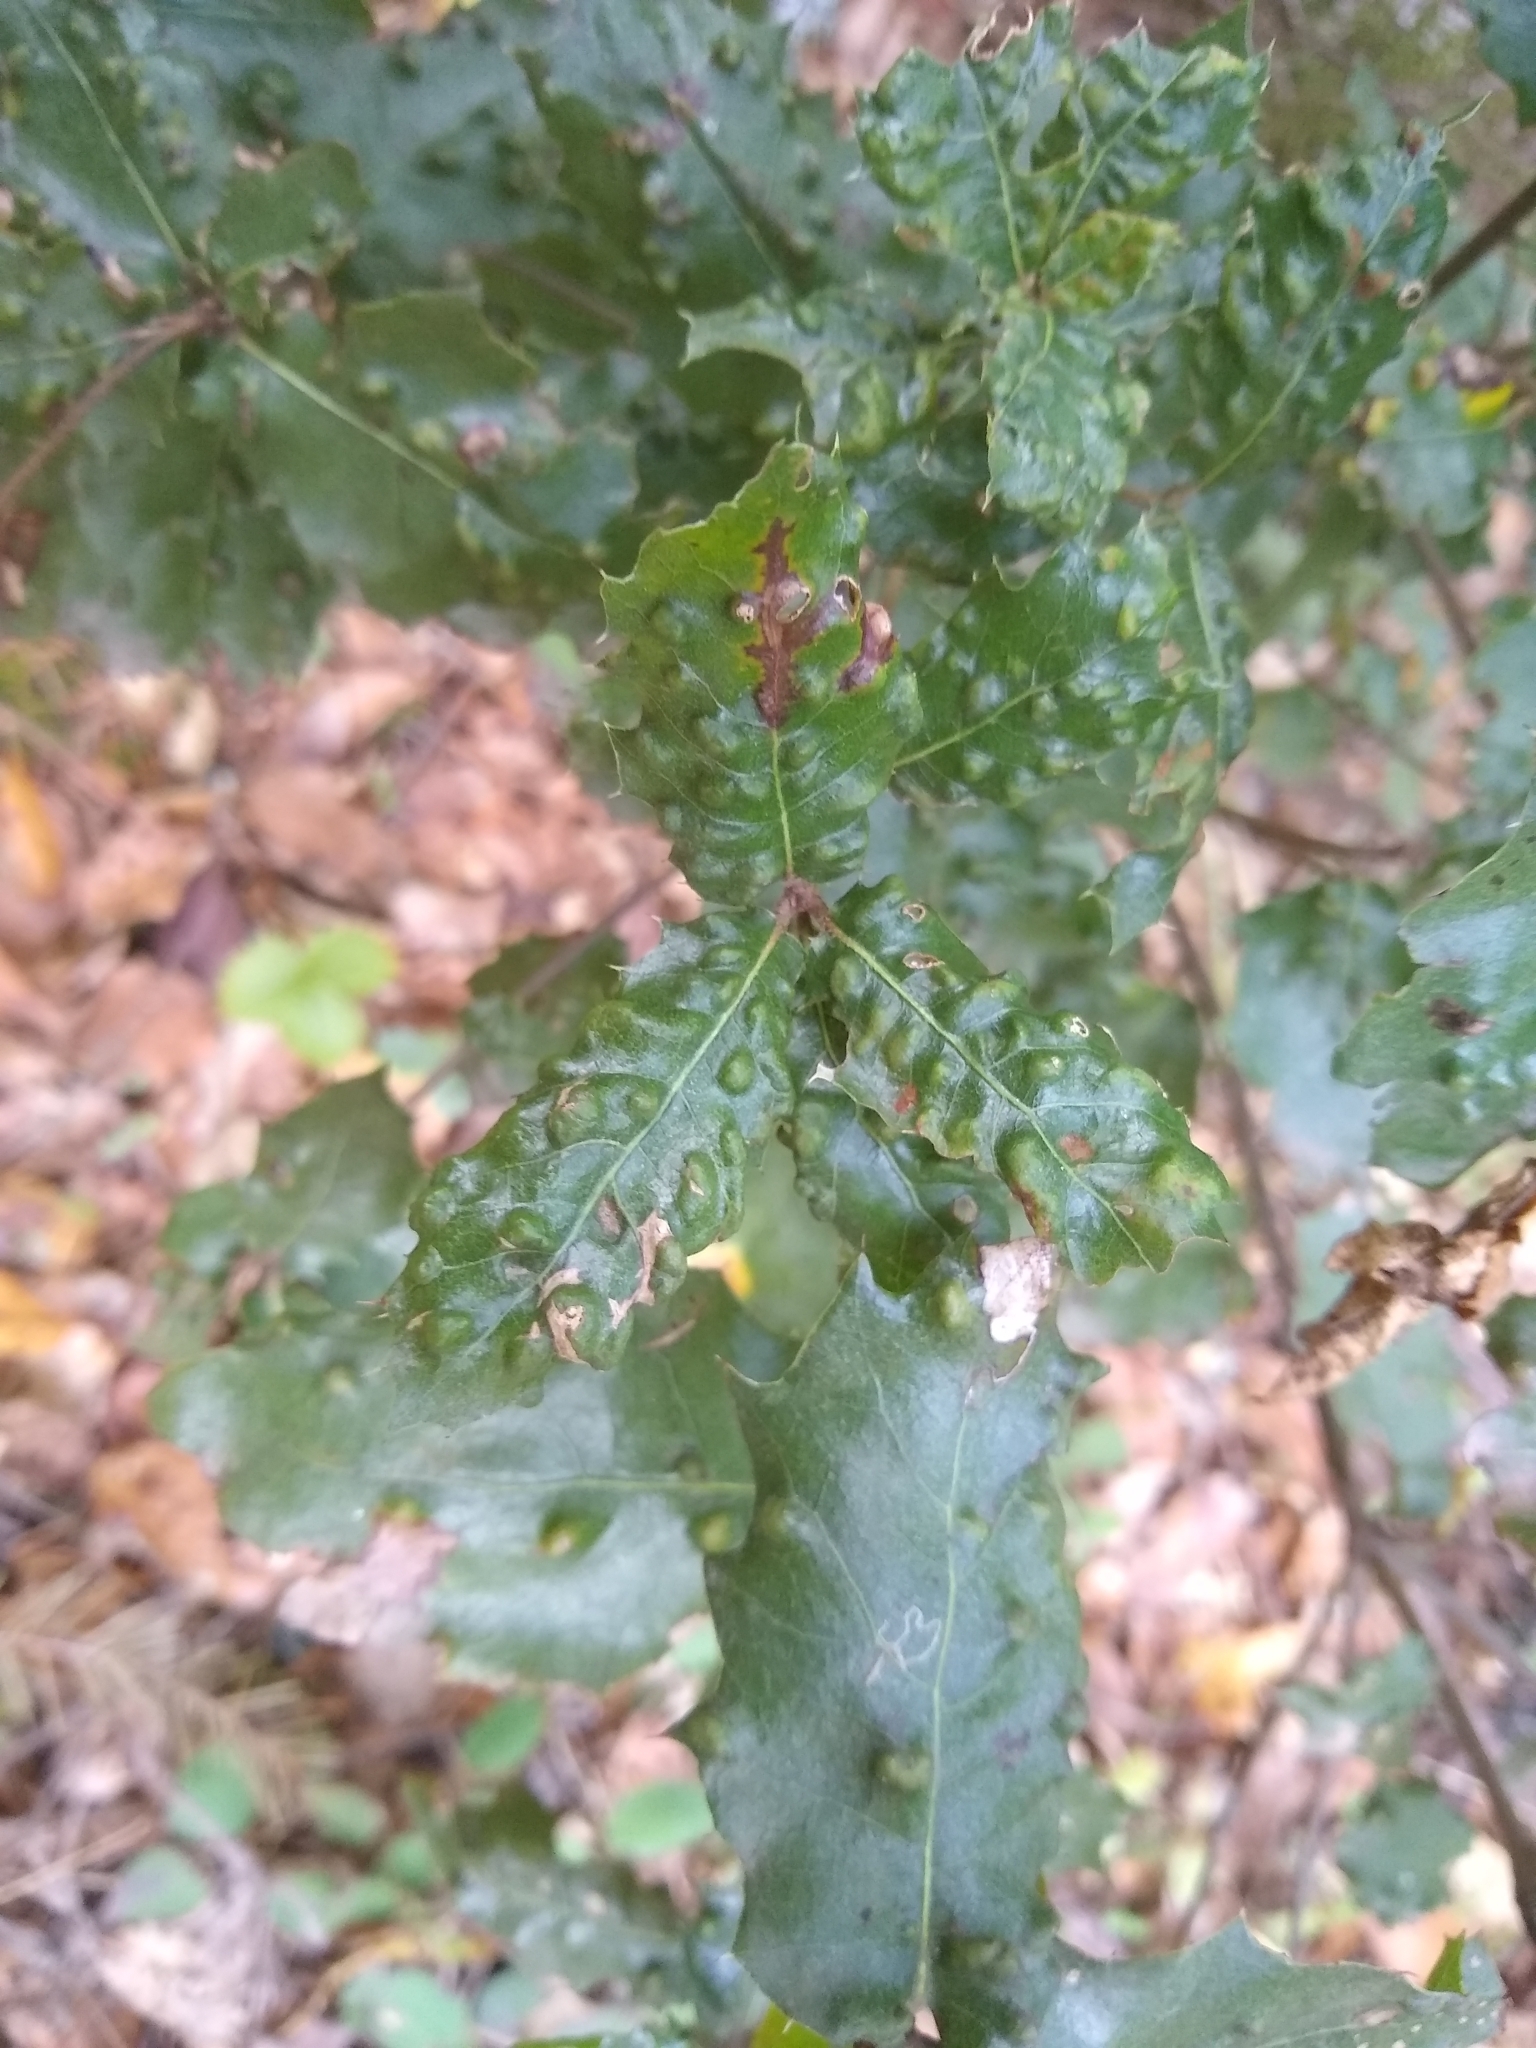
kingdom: Animalia
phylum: Arthropoda
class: Arachnida
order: Trombidiformes
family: Eriophyidae
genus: Aceria
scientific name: Aceria
